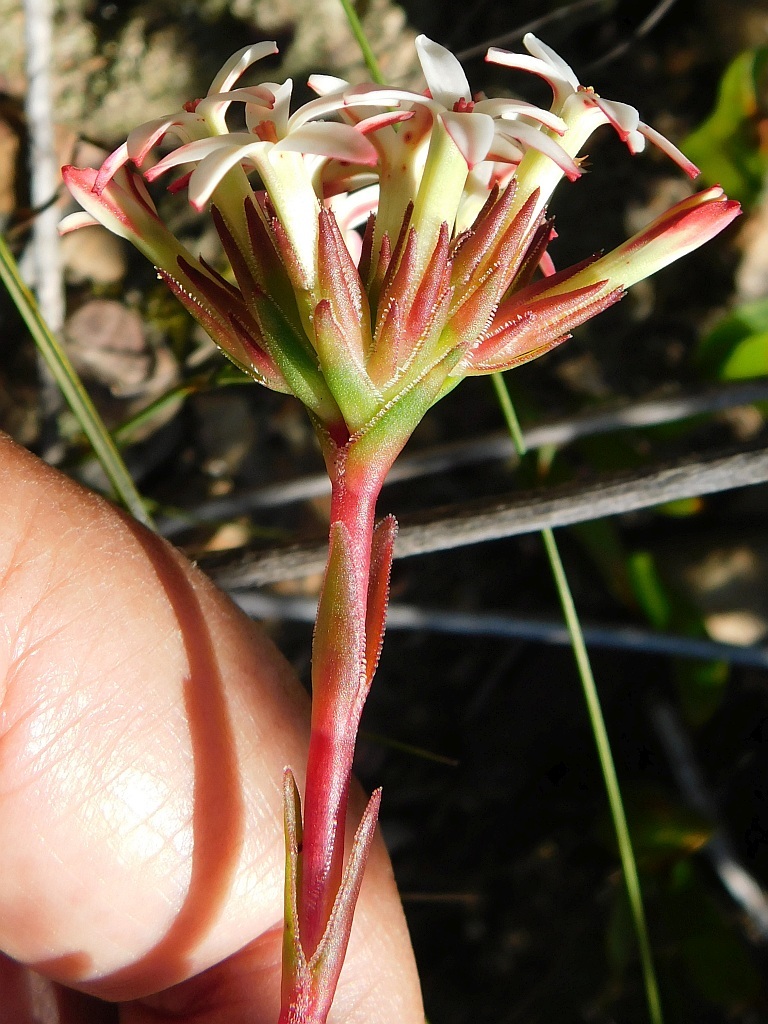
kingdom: Plantae
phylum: Tracheophyta
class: Magnoliopsida
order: Saxifragales
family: Crassulaceae
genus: Crassula
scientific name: Crassula obtusa
